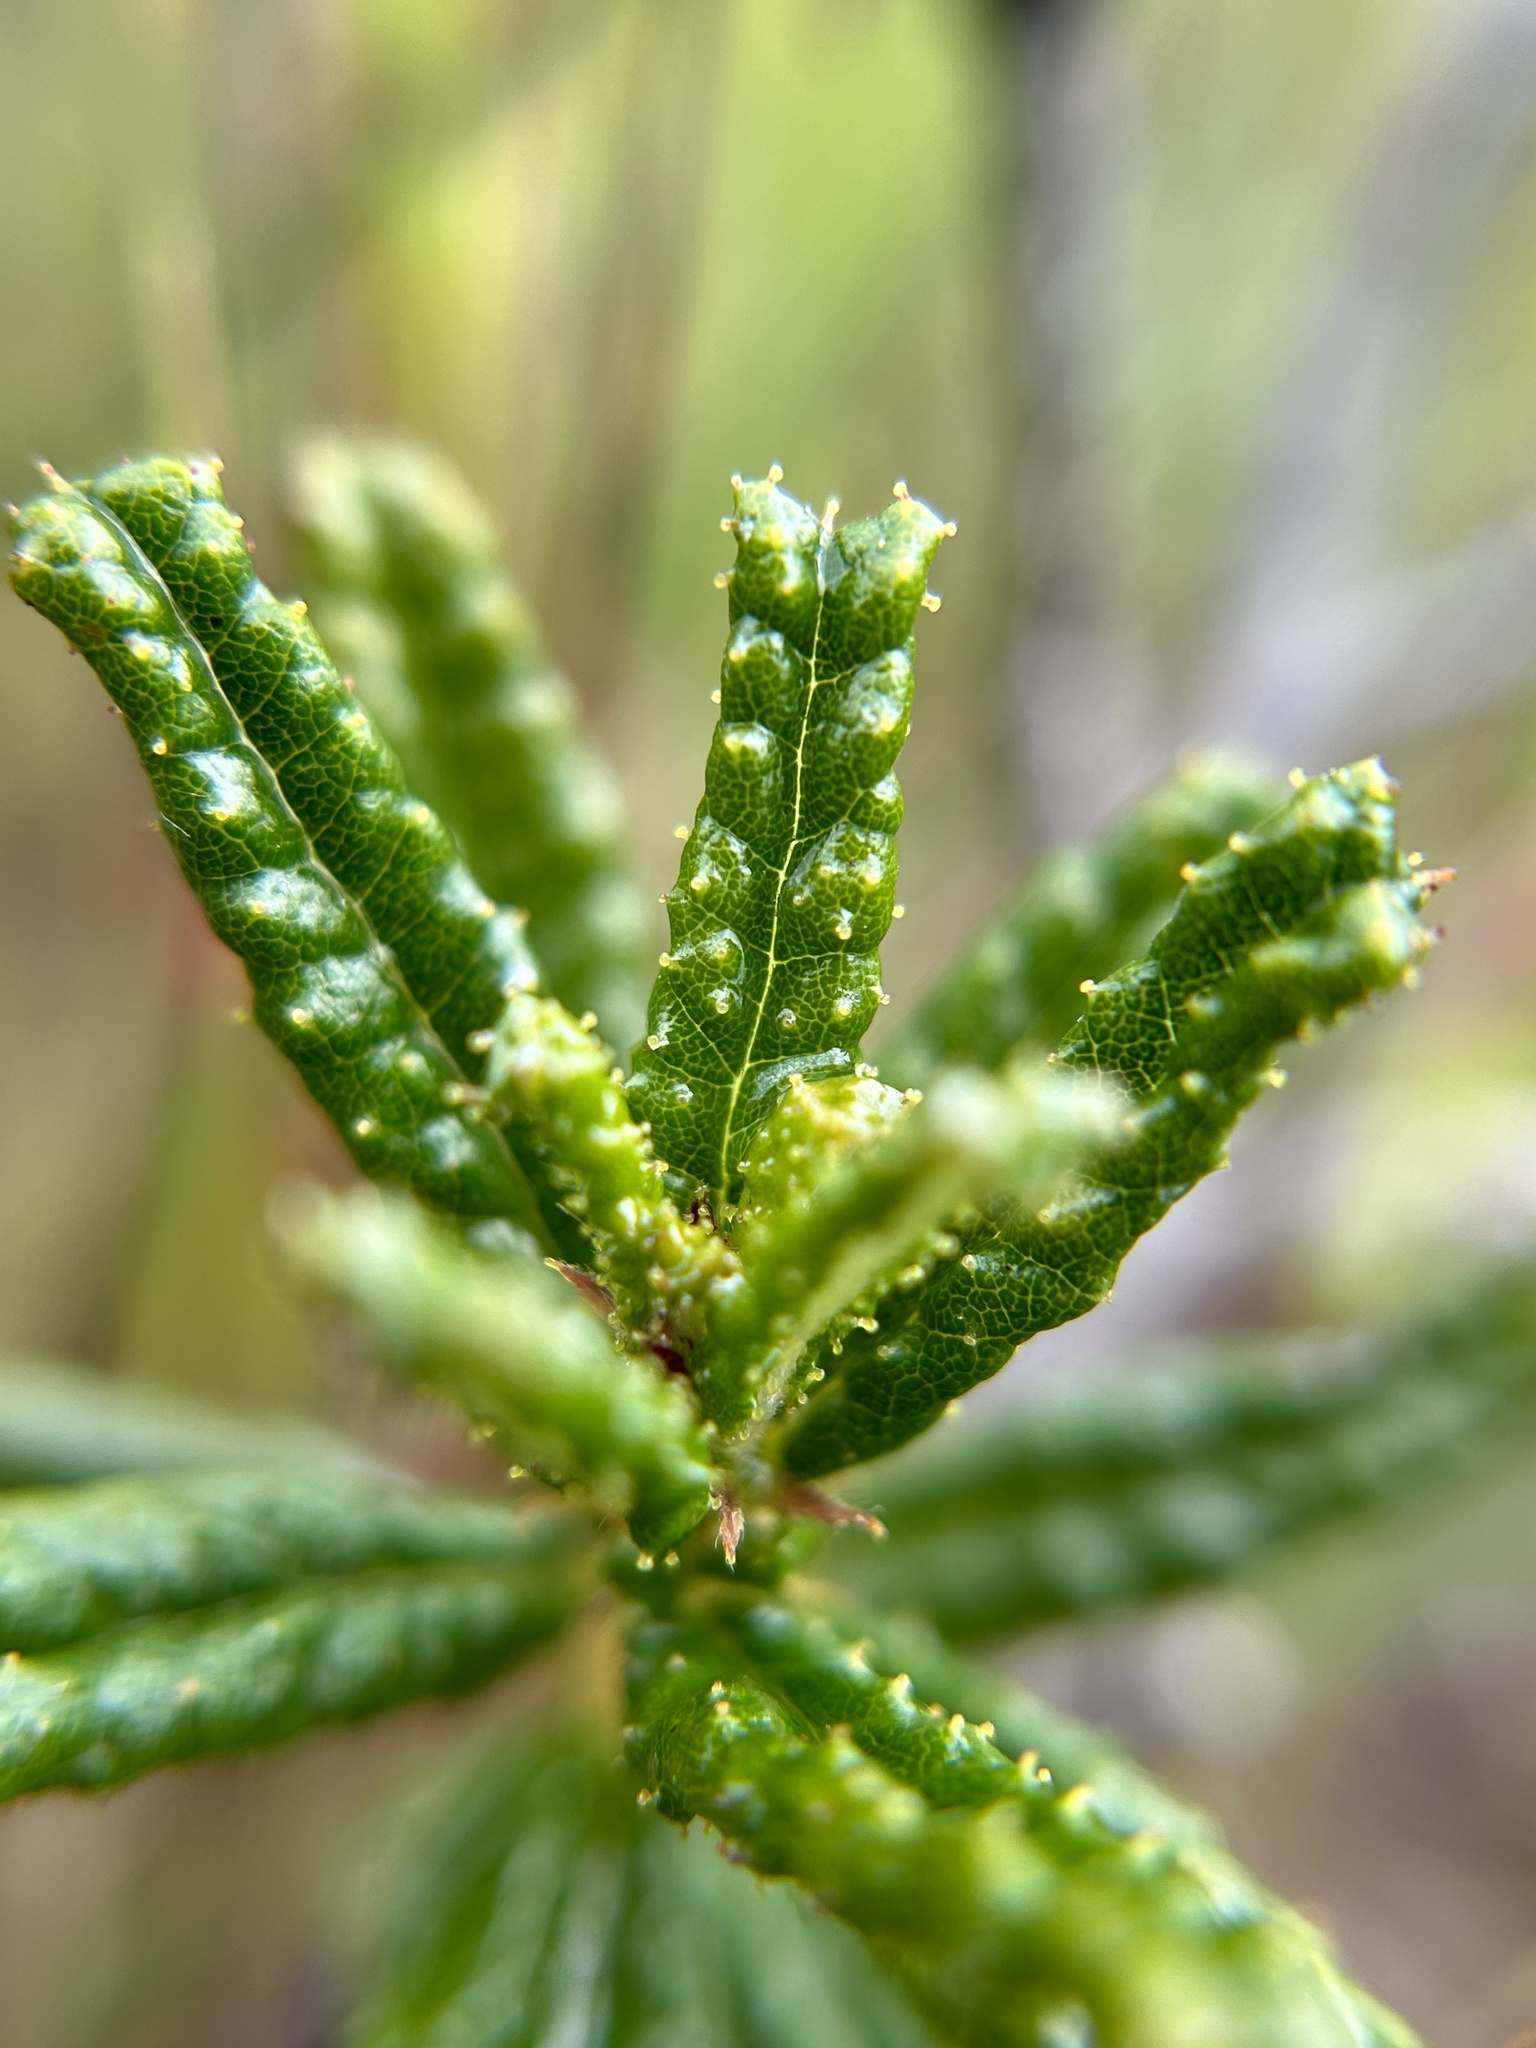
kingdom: Plantae
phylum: Tracheophyta
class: Magnoliopsida
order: Rosales
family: Rhamnaceae
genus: Ceanothus
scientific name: Ceanothus hearstiorum
